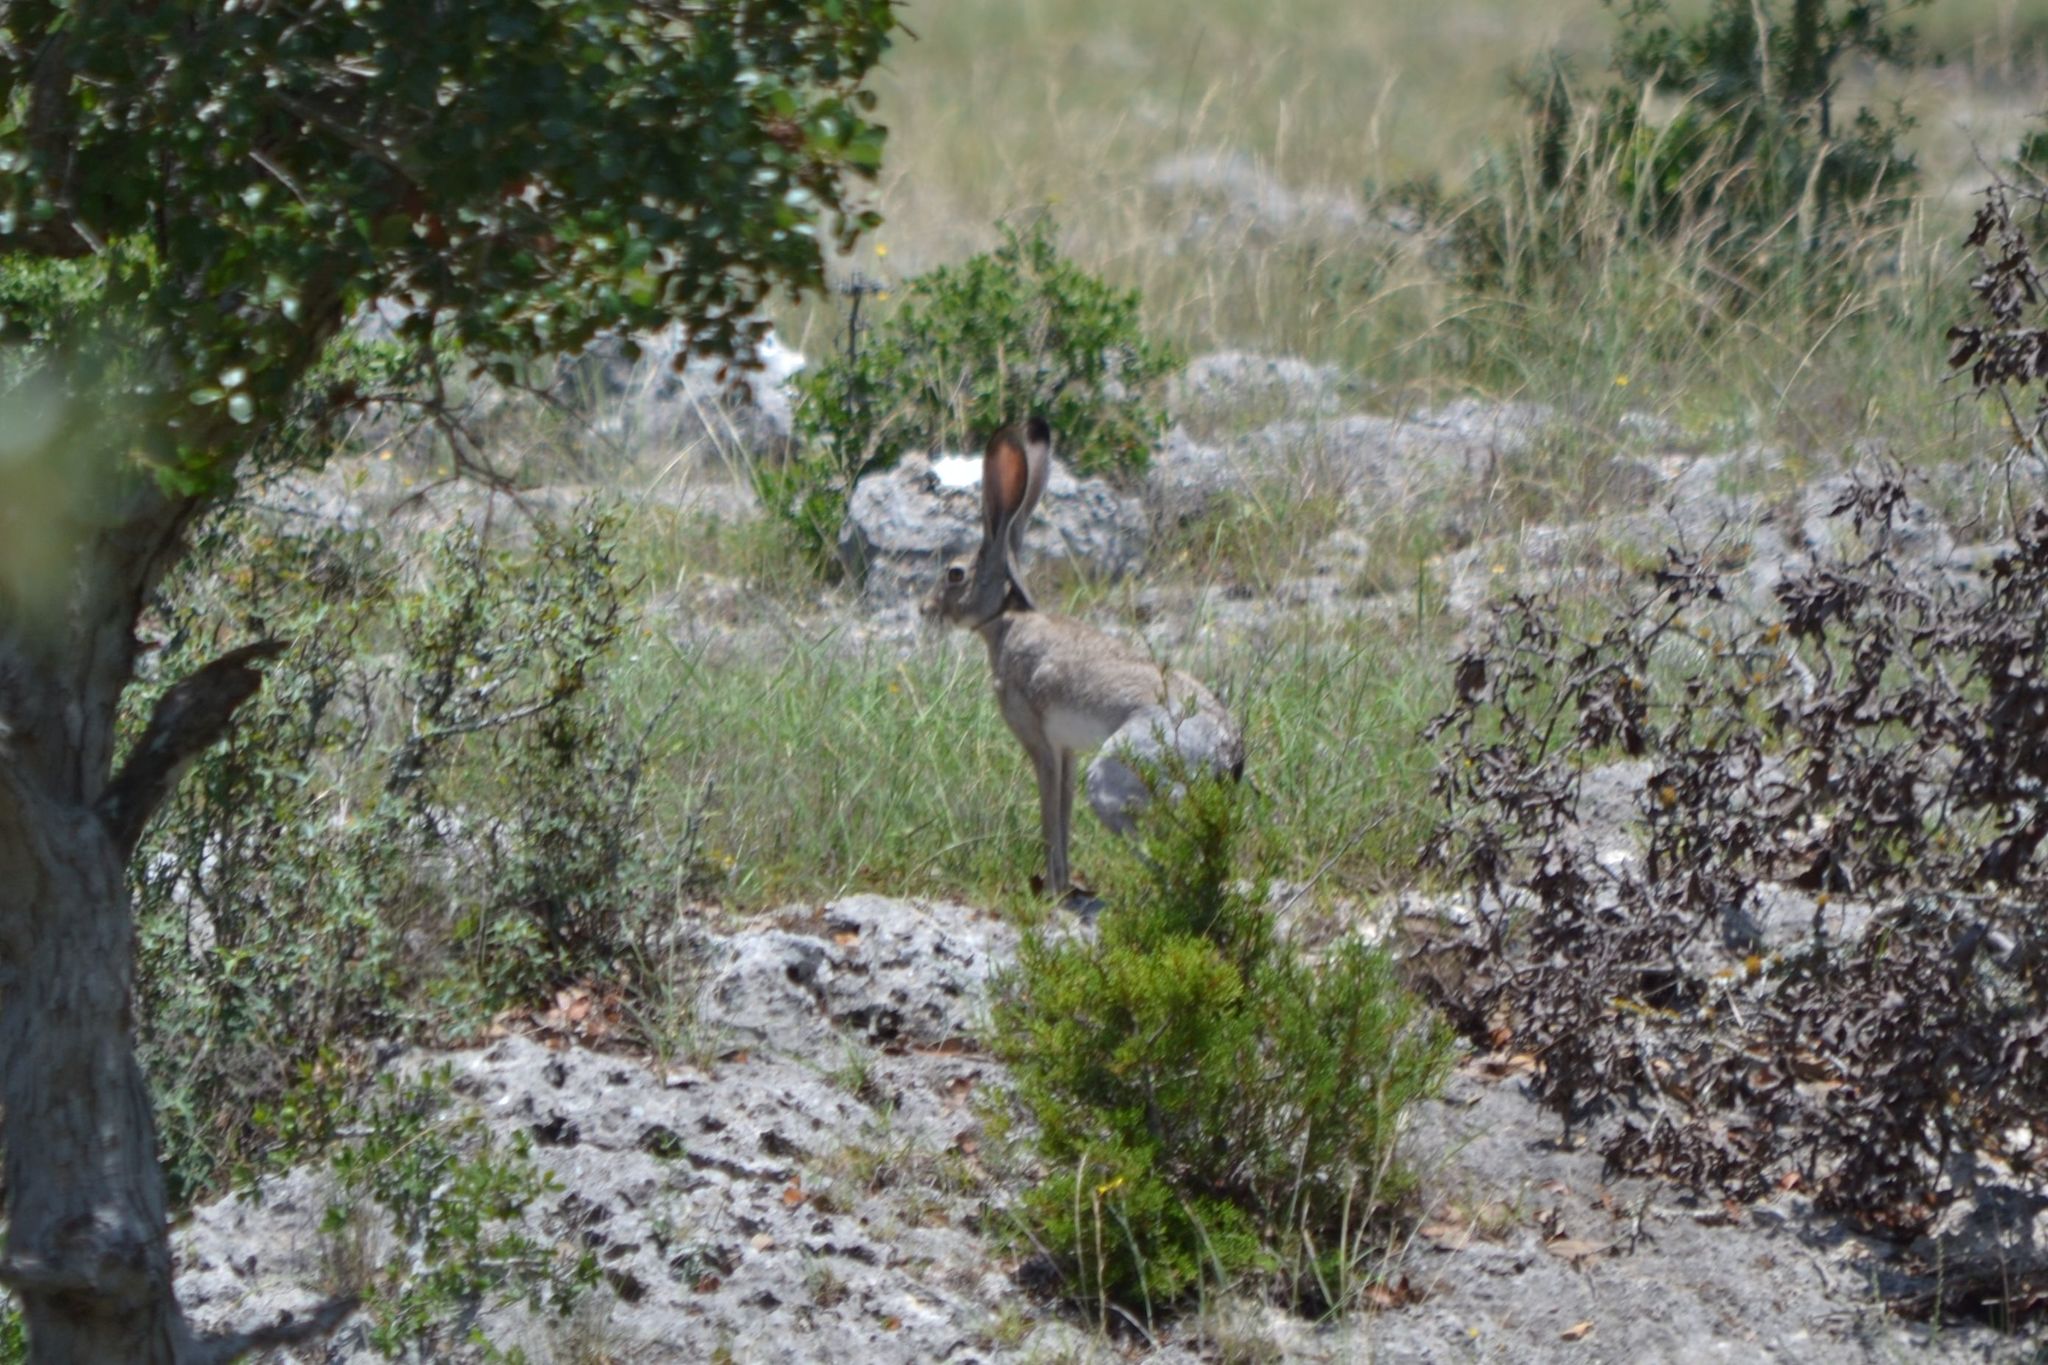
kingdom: Animalia
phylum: Chordata
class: Mammalia
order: Lagomorpha
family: Leporidae
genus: Lepus
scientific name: Lepus californicus
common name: Black-tailed jackrabbit
